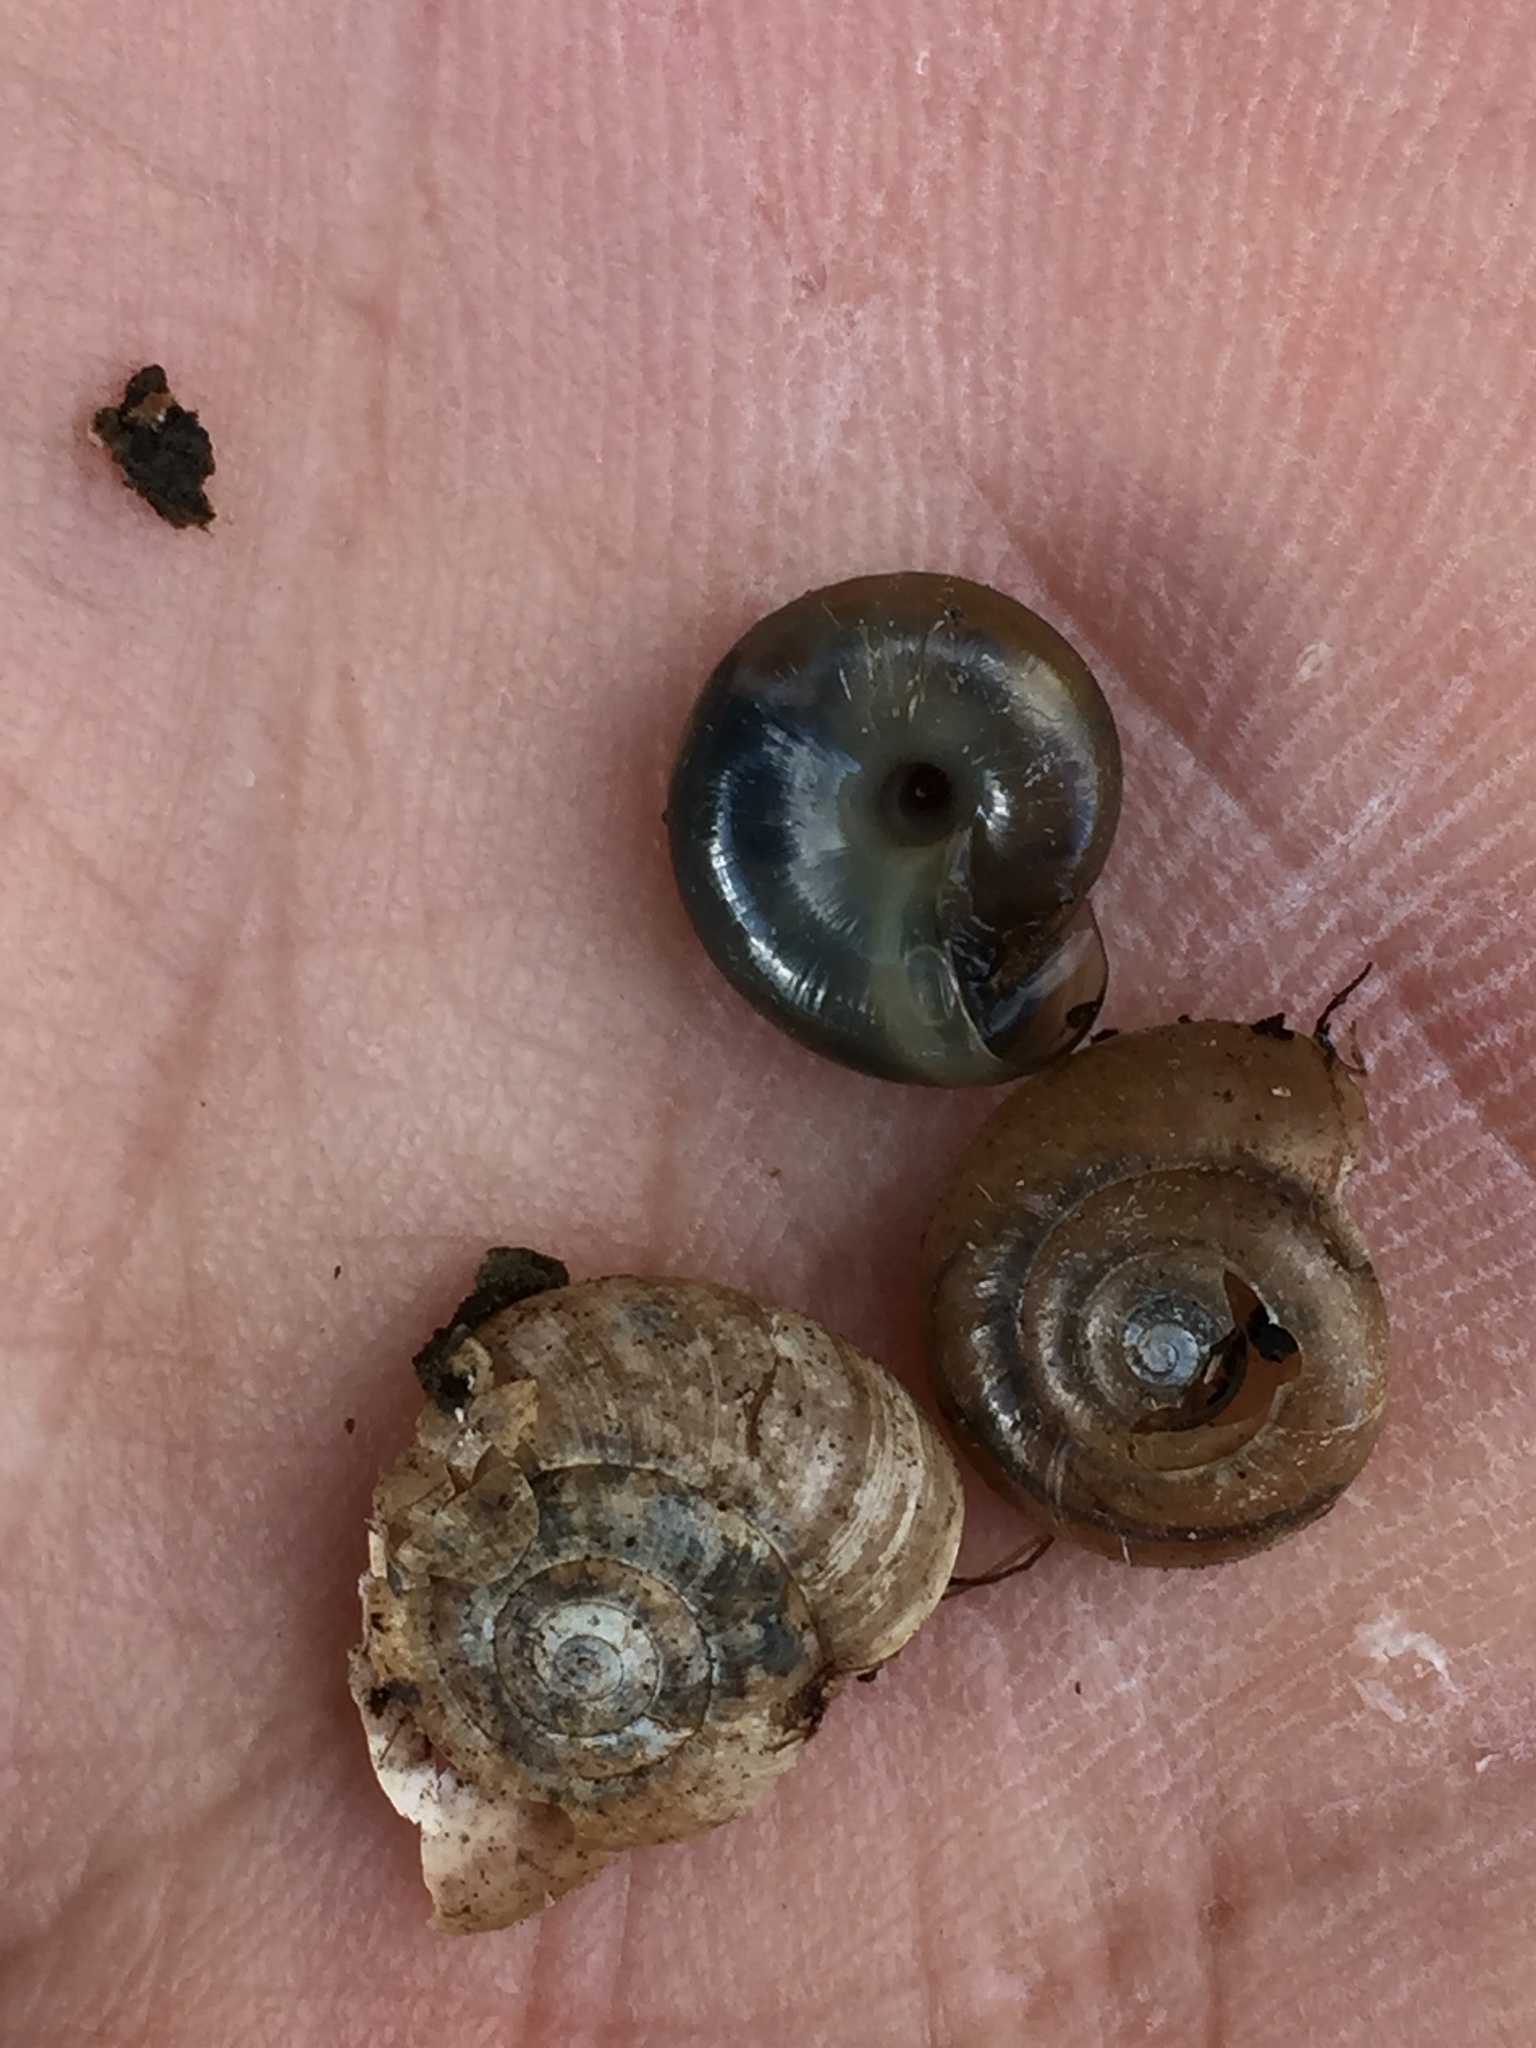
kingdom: Animalia
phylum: Mollusca
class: Gastropoda
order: Stylommatophora
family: Oxychilidae
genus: Oxychilus
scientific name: Oxychilus draparnaudi
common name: Draparnaud's glass snail
